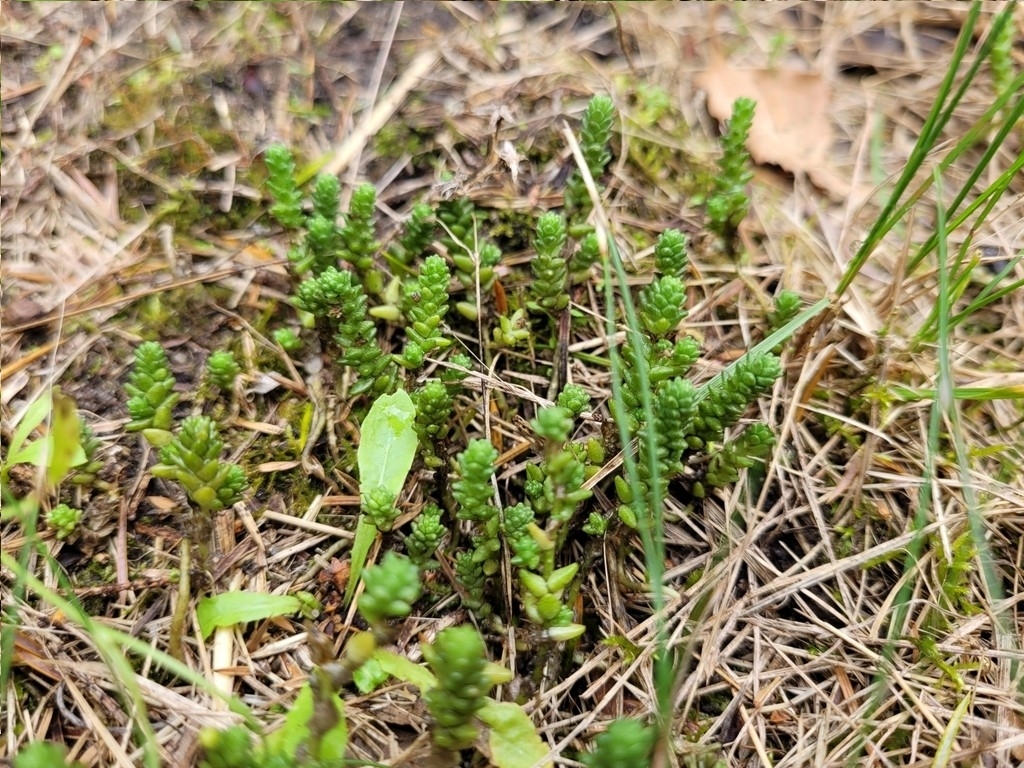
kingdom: Plantae
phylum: Tracheophyta
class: Magnoliopsida
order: Saxifragales
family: Crassulaceae
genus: Sedum
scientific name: Sedum acre
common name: Biting stonecrop
